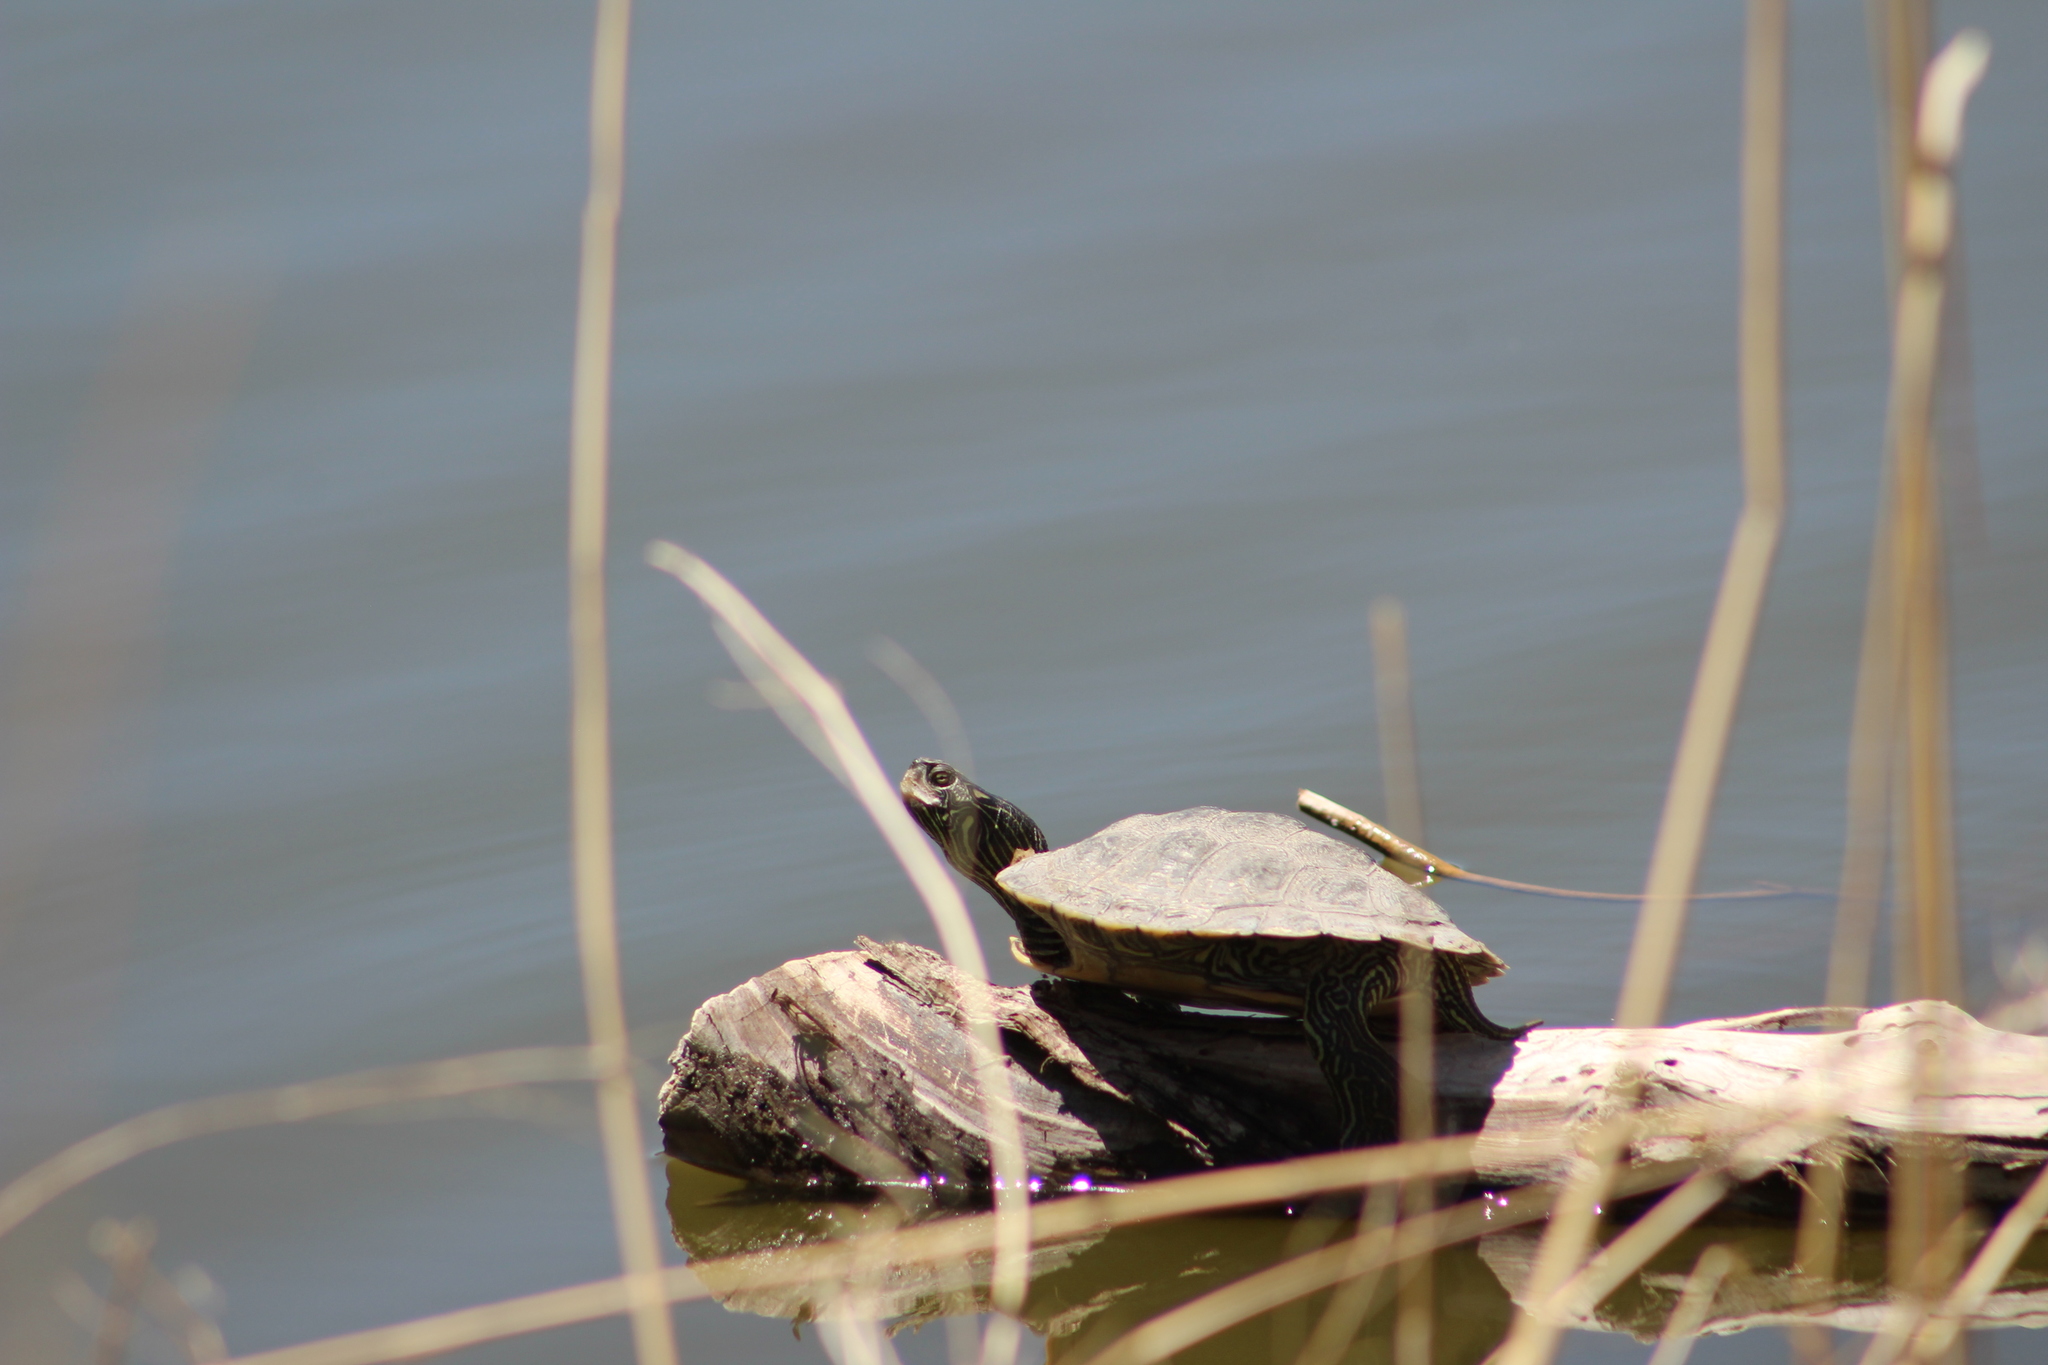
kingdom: Animalia
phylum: Chordata
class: Testudines
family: Emydidae
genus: Trachemys
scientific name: Trachemys scripta
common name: Slider
